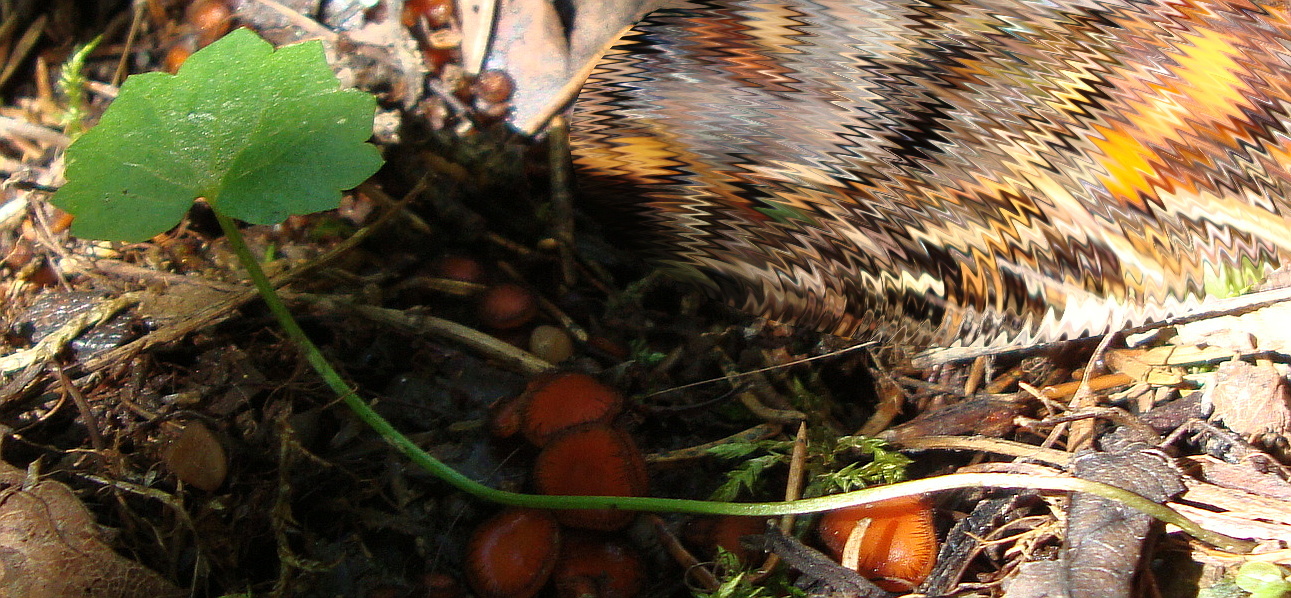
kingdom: Plantae
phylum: Tracheophyta
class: Magnoliopsida
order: Ranunculales
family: Ranunculaceae
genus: Ranunculus
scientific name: Ranunculus cassubicus
